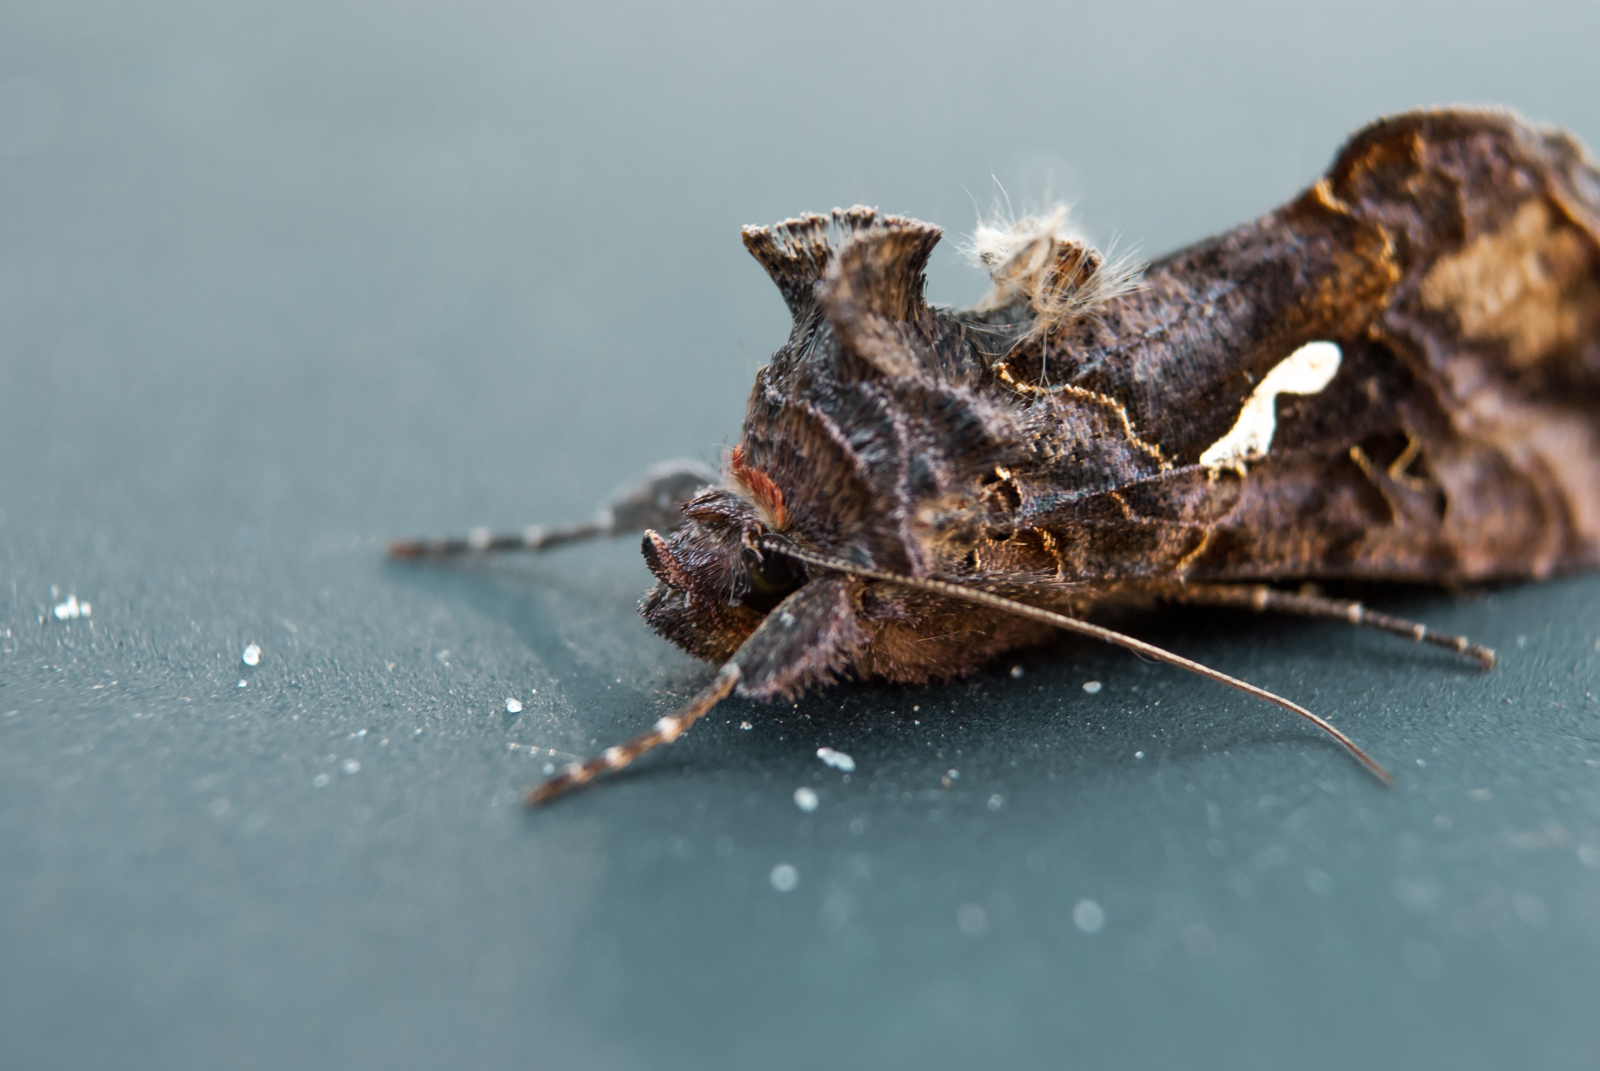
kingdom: Animalia
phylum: Arthropoda
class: Insecta
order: Lepidoptera
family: Noctuidae
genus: Megalographa
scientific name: Megalographa biloba
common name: Cutworm
